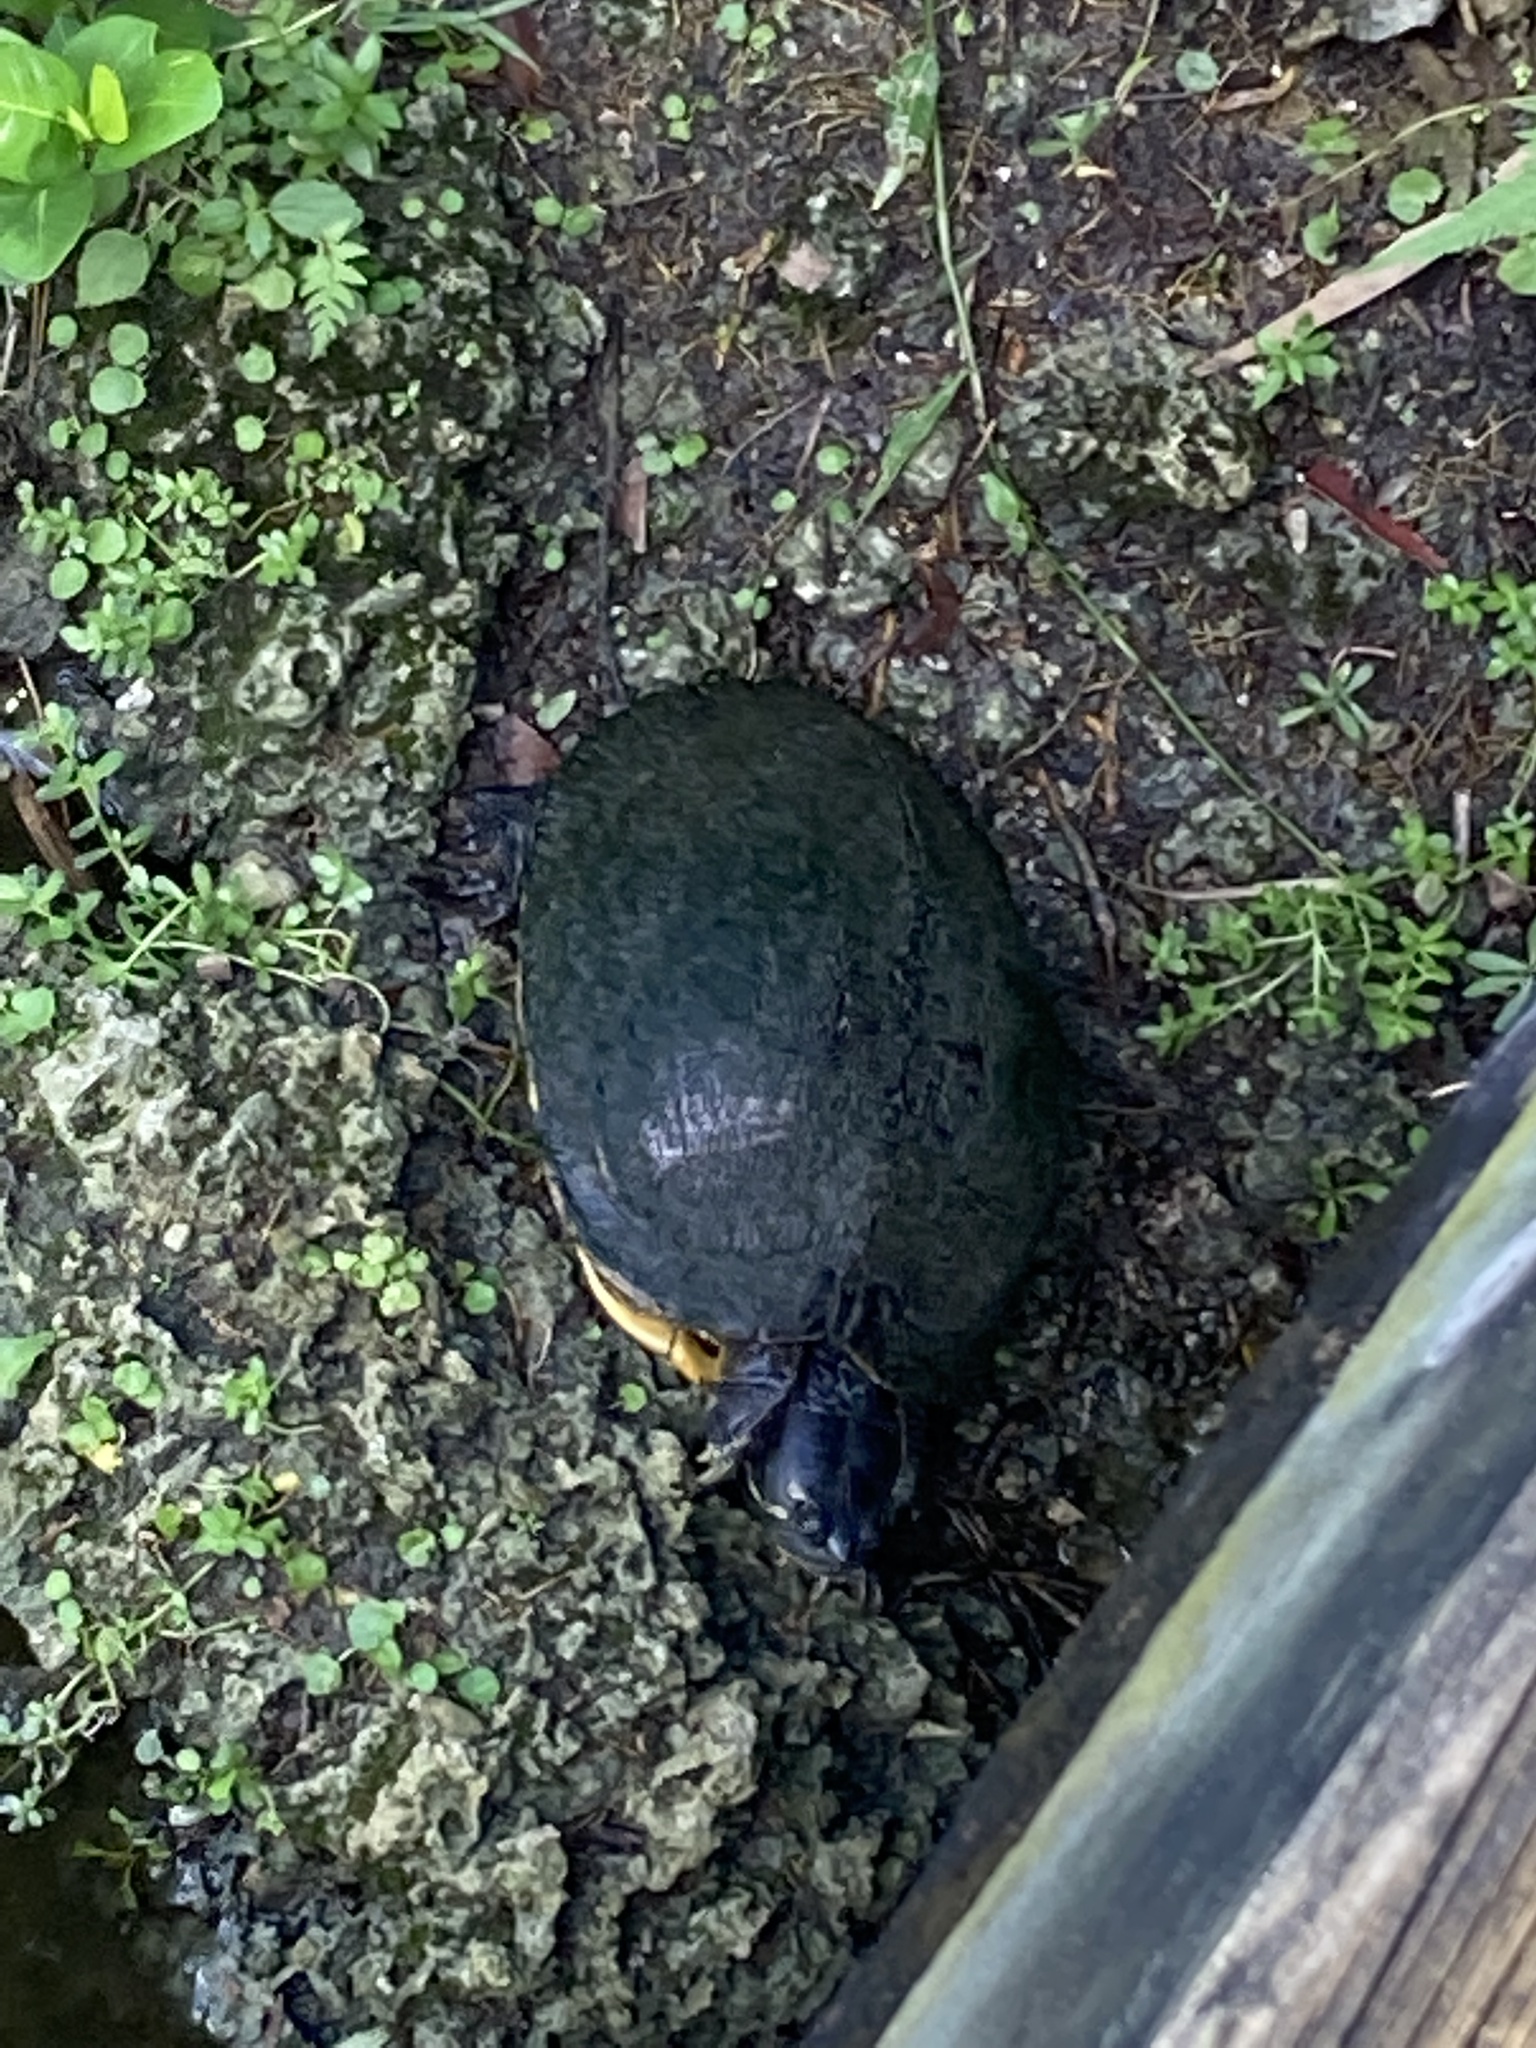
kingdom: Animalia
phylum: Chordata
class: Testudines
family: Emydidae
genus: Trachemys
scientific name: Trachemys scripta
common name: Slider
